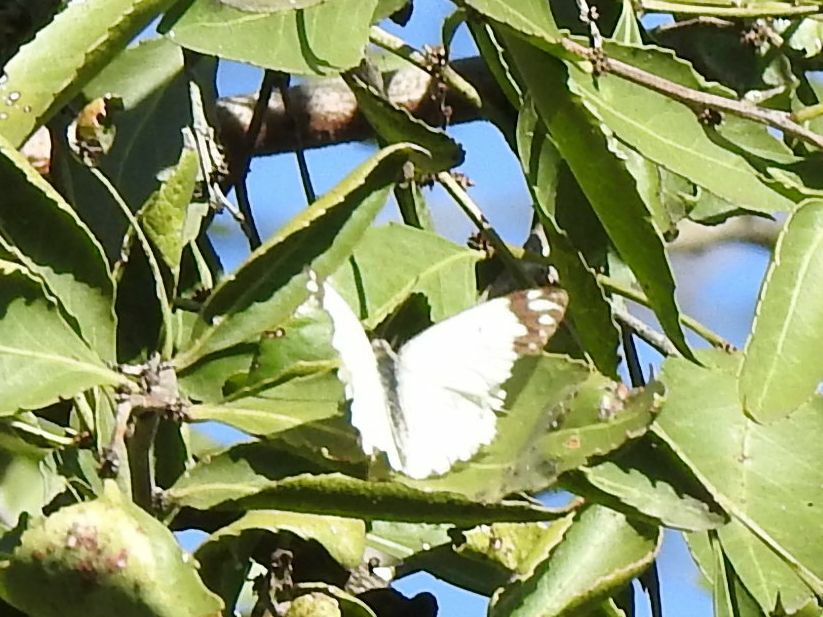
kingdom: Animalia
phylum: Arthropoda
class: Insecta
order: Lepidoptera
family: Pieridae
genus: Belenois
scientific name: Belenois creona
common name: African caper white
